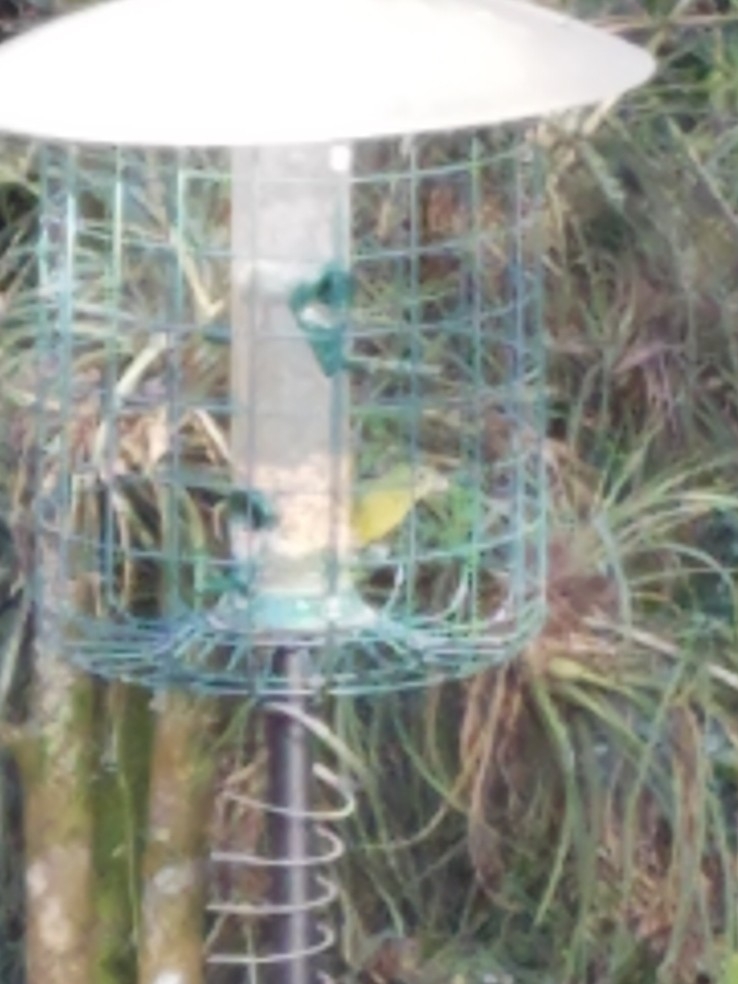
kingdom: Animalia
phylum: Chordata
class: Aves
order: Passeriformes
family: Cardinalidae
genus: Passerina
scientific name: Passerina ciris
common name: Painted bunting
